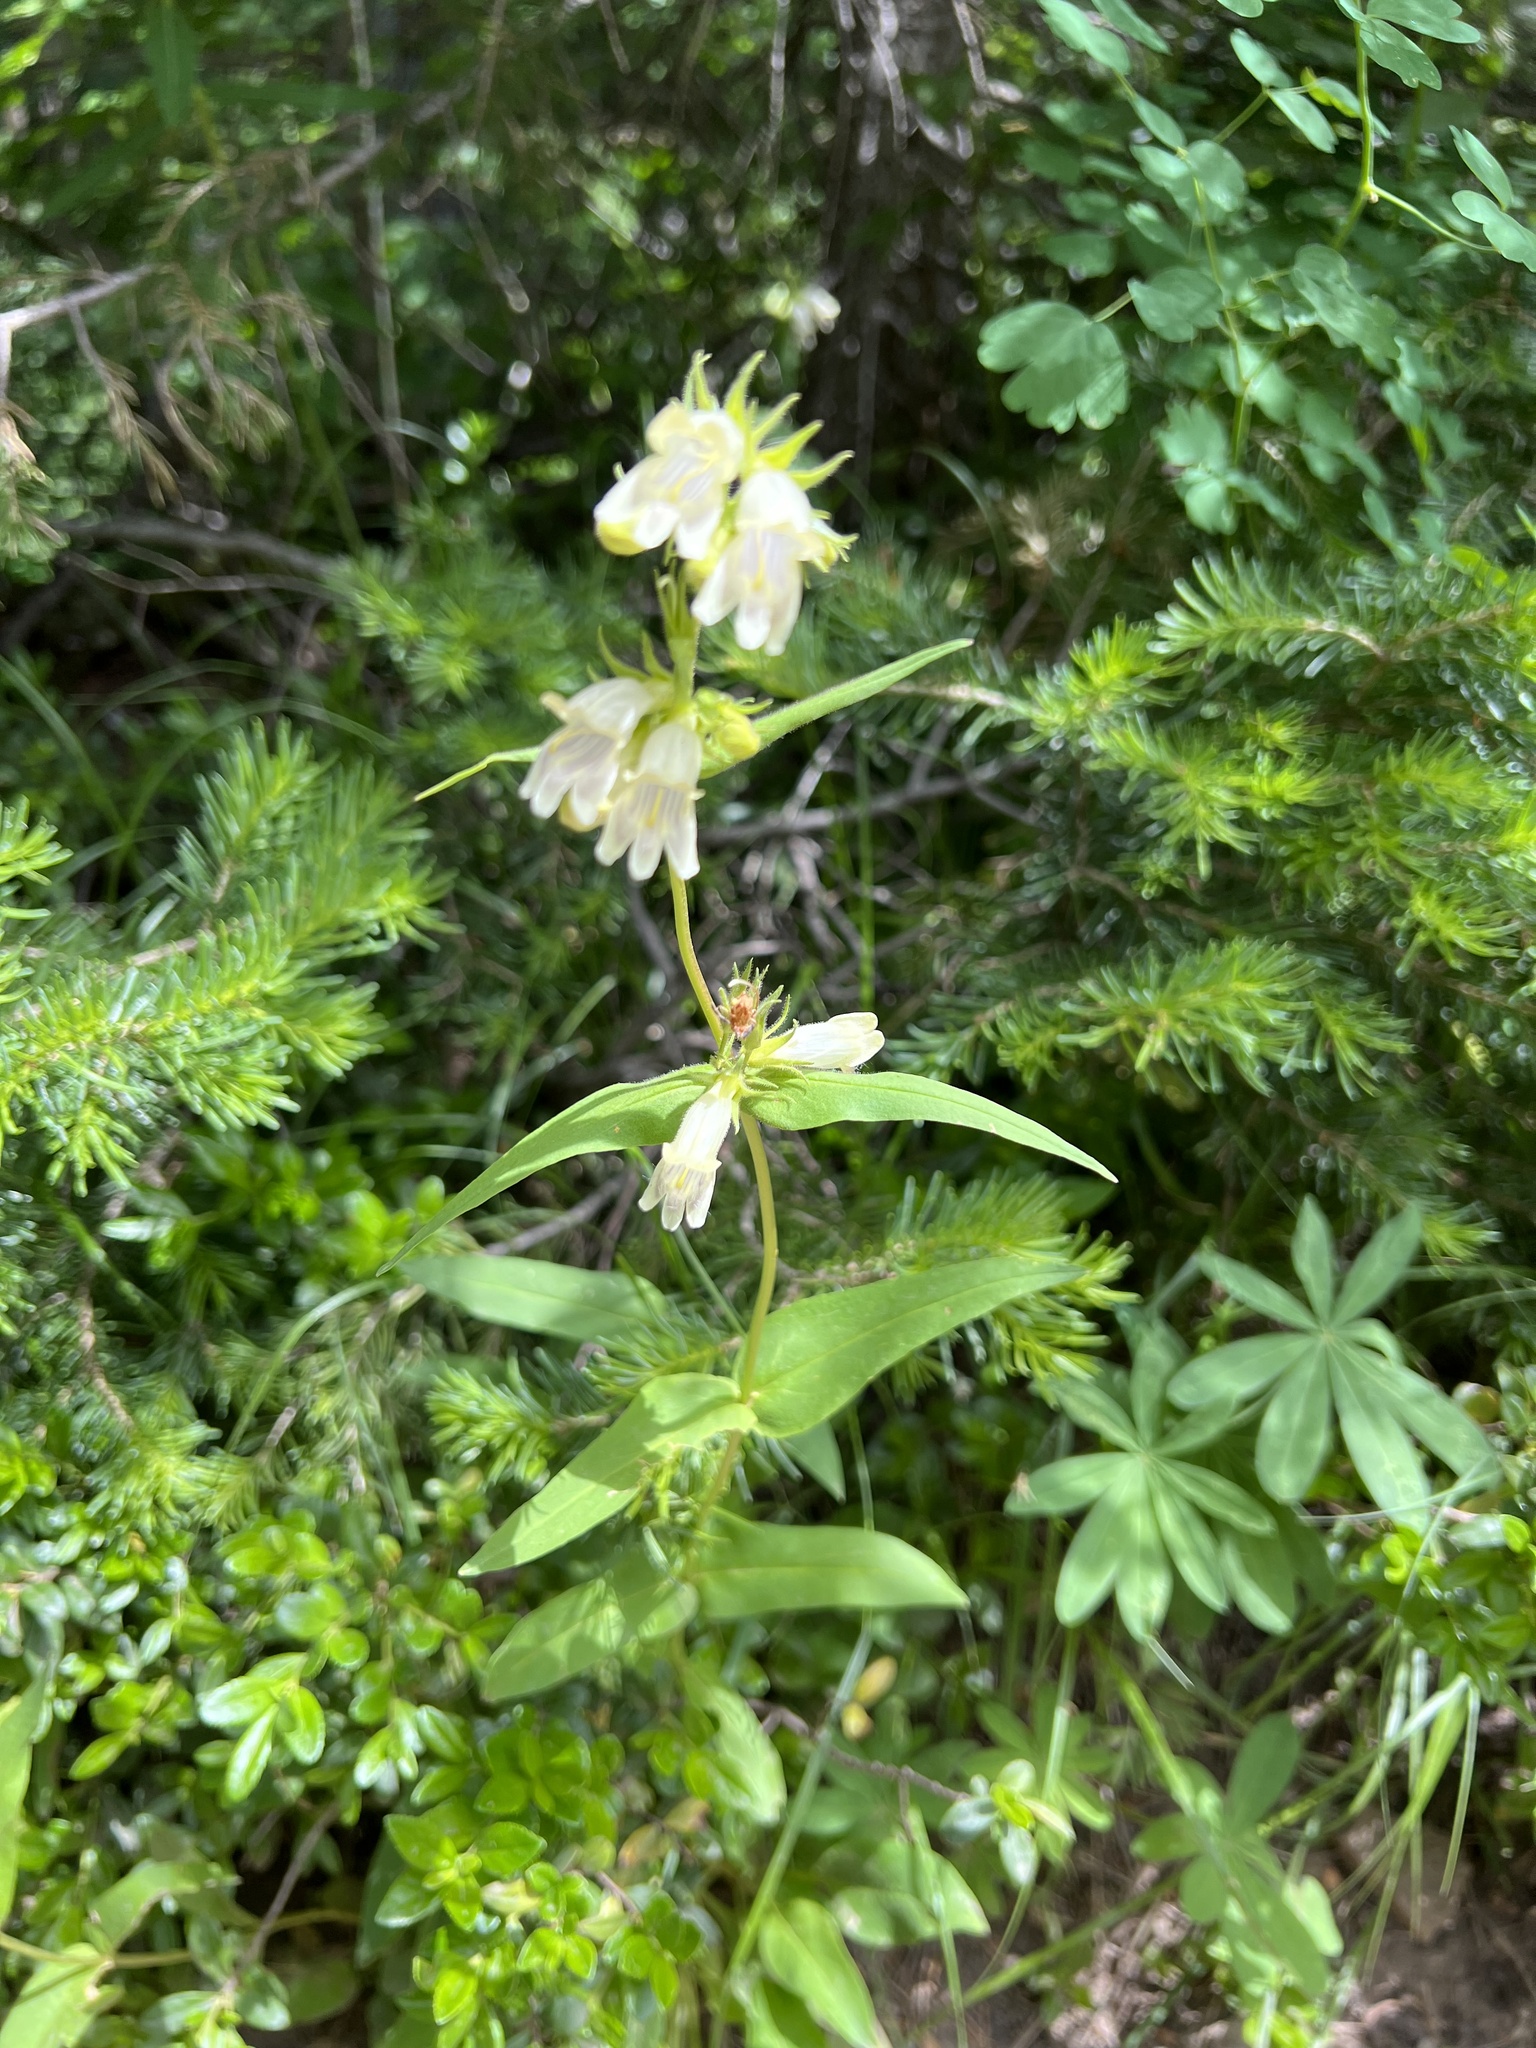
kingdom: Plantae
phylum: Tracheophyta
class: Magnoliopsida
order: Lamiales
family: Plantaginaceae
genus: Penstemon
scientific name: Penstemon whippleanus
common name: Whipple's penstemon
